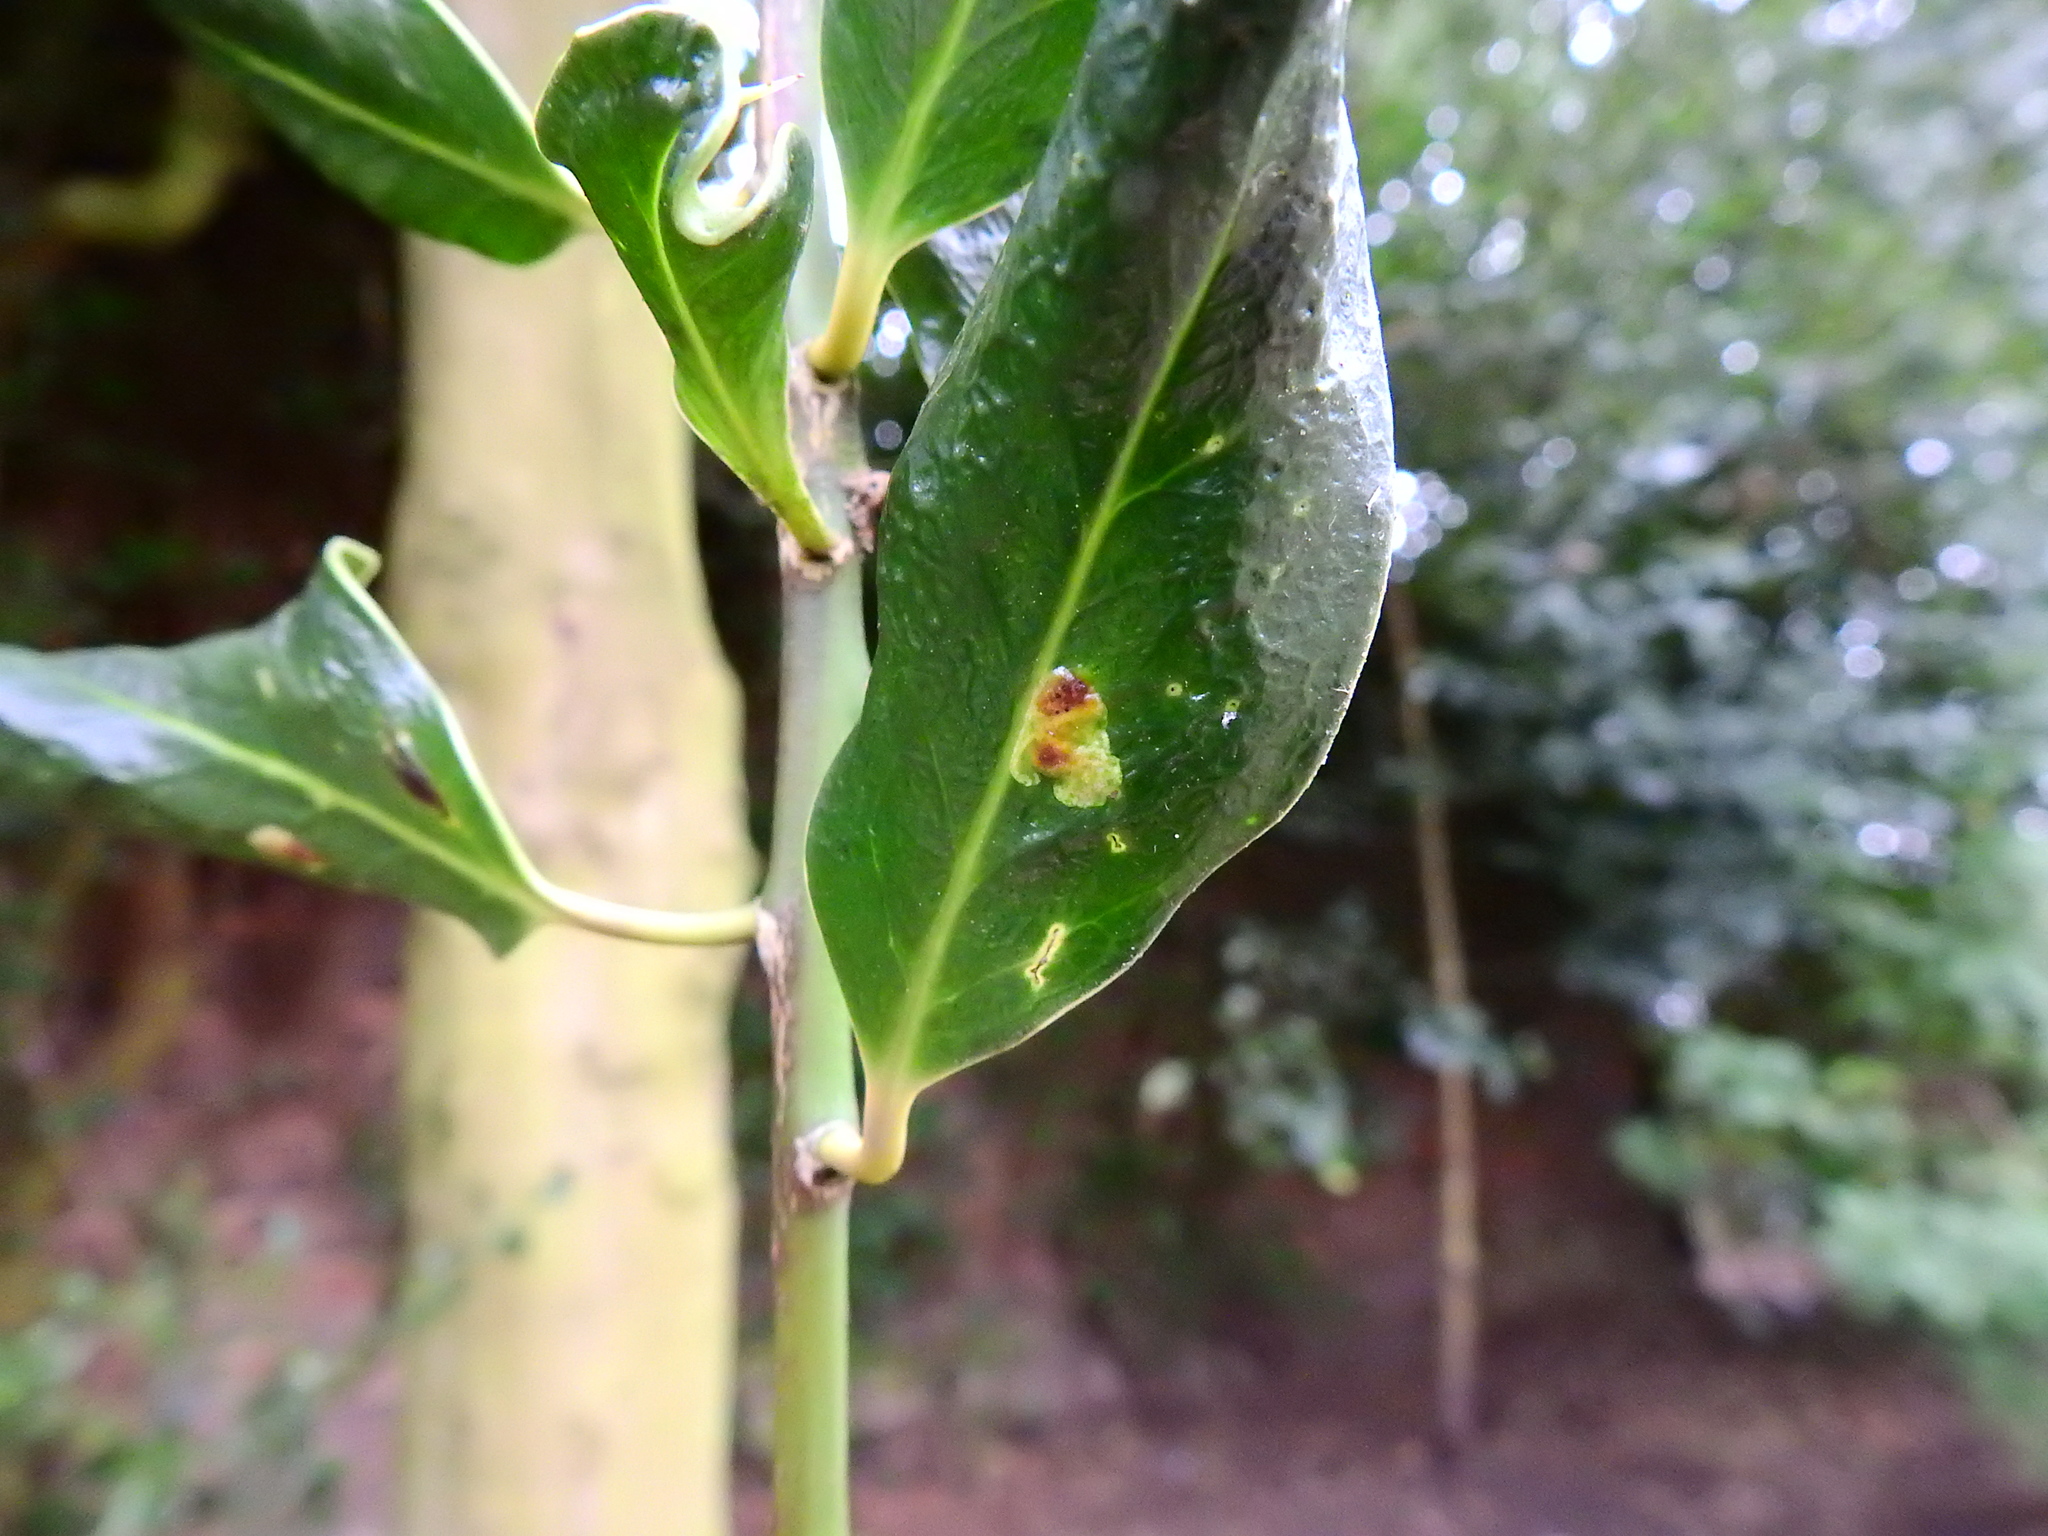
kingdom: Animalia
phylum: Arthropoda
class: Insecta
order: Diptera
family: Agromyzidae
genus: Phytomyza
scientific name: Phytomyza ilicis
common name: Holly leafminer
